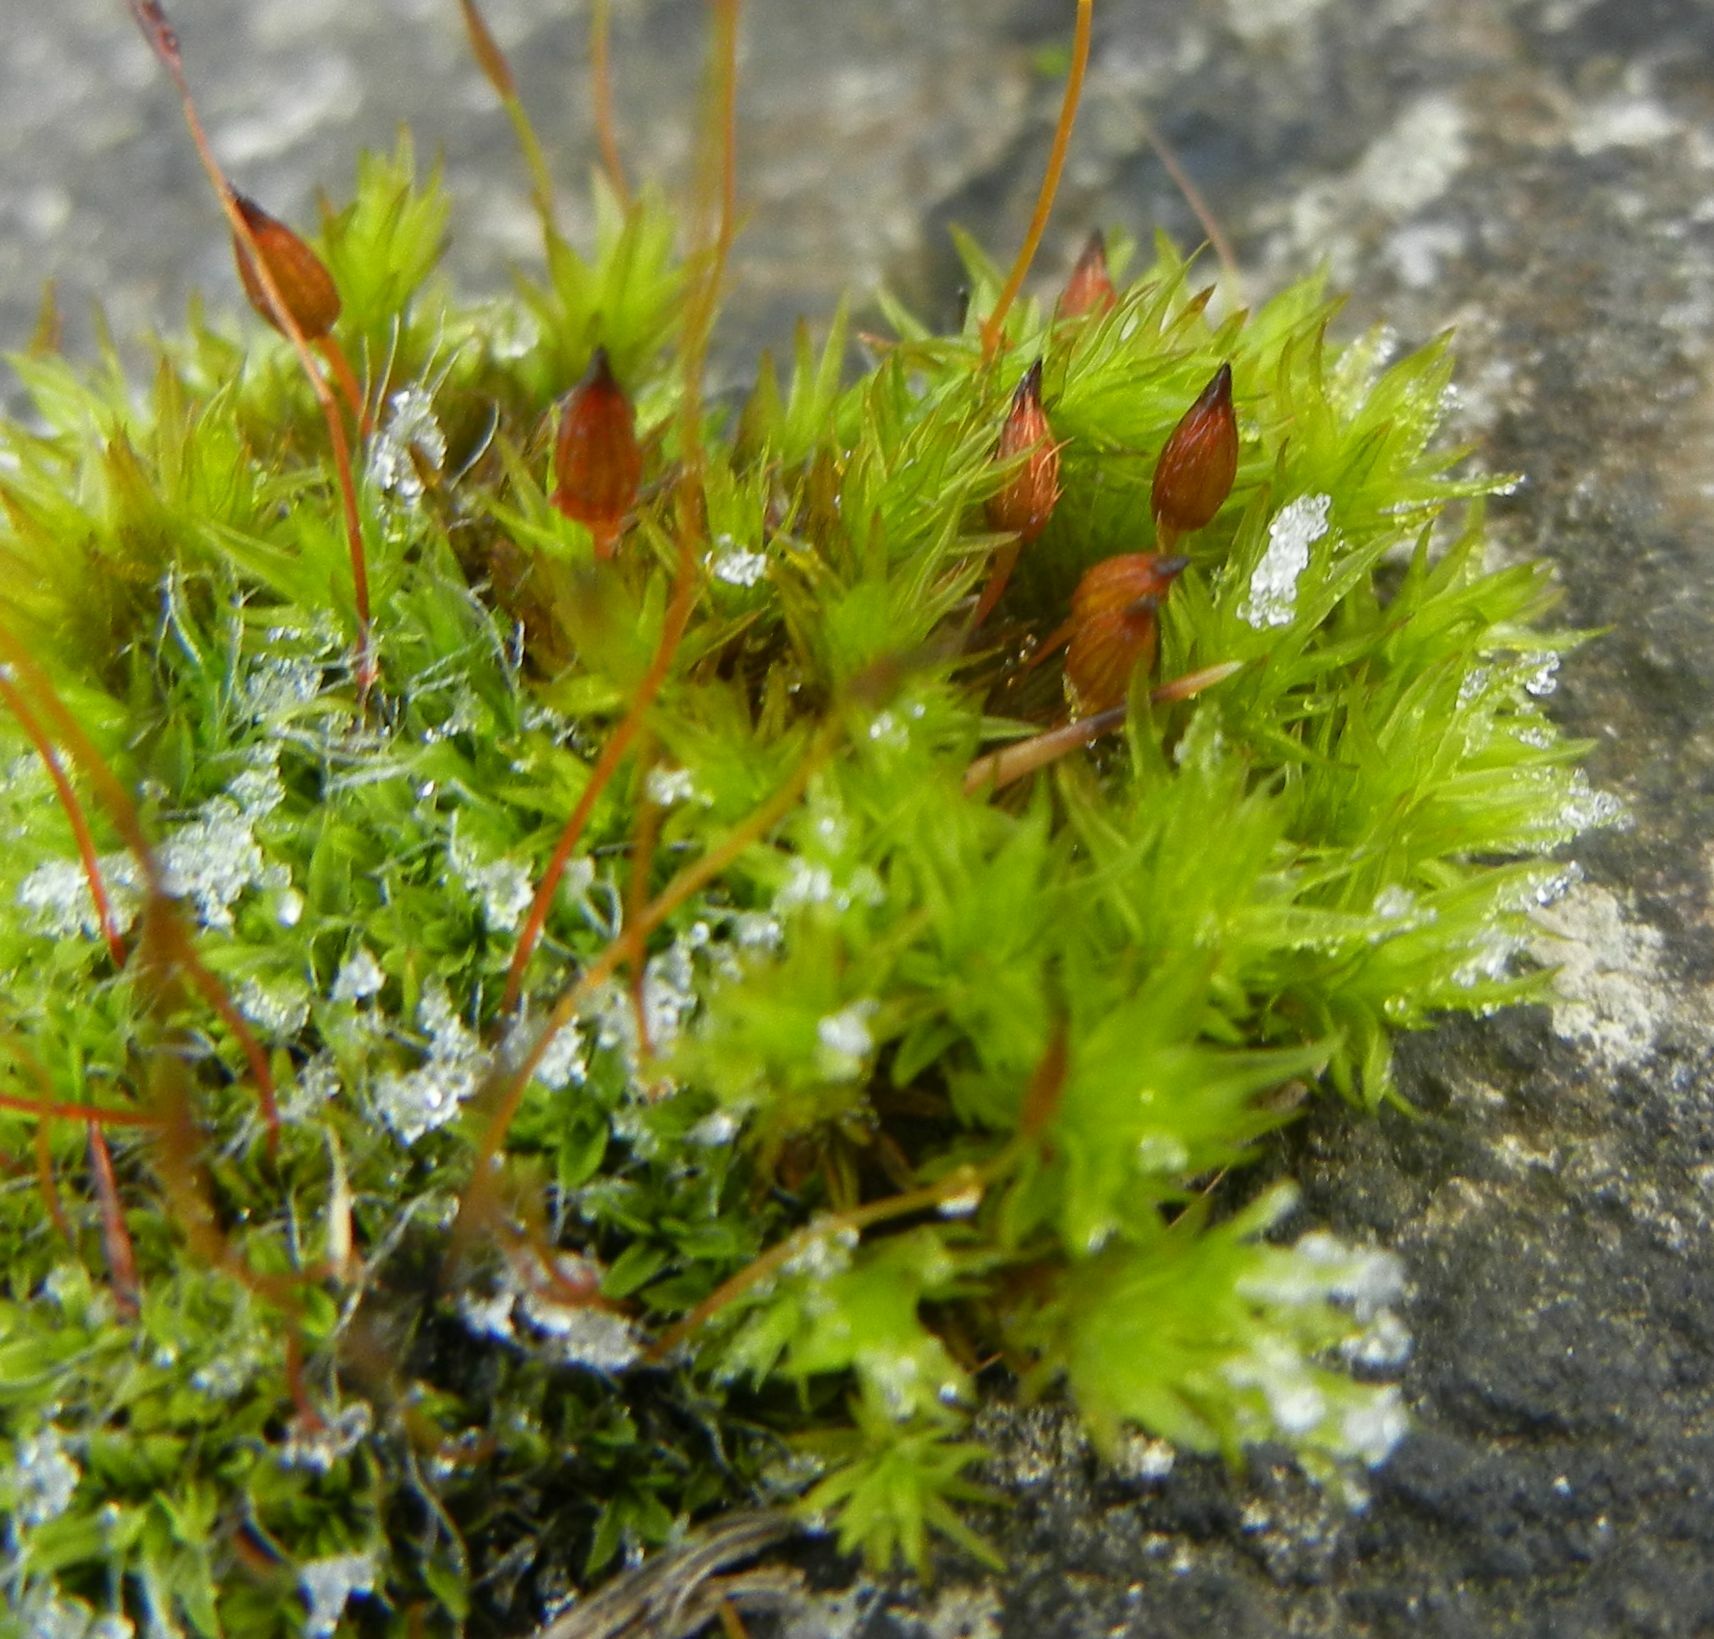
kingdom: Plantae
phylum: Bryophyta
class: Bryopsida
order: Orthotrichales
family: Orthotrichaceae
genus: Orthotrichum
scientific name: Orthotrichum anomalum
